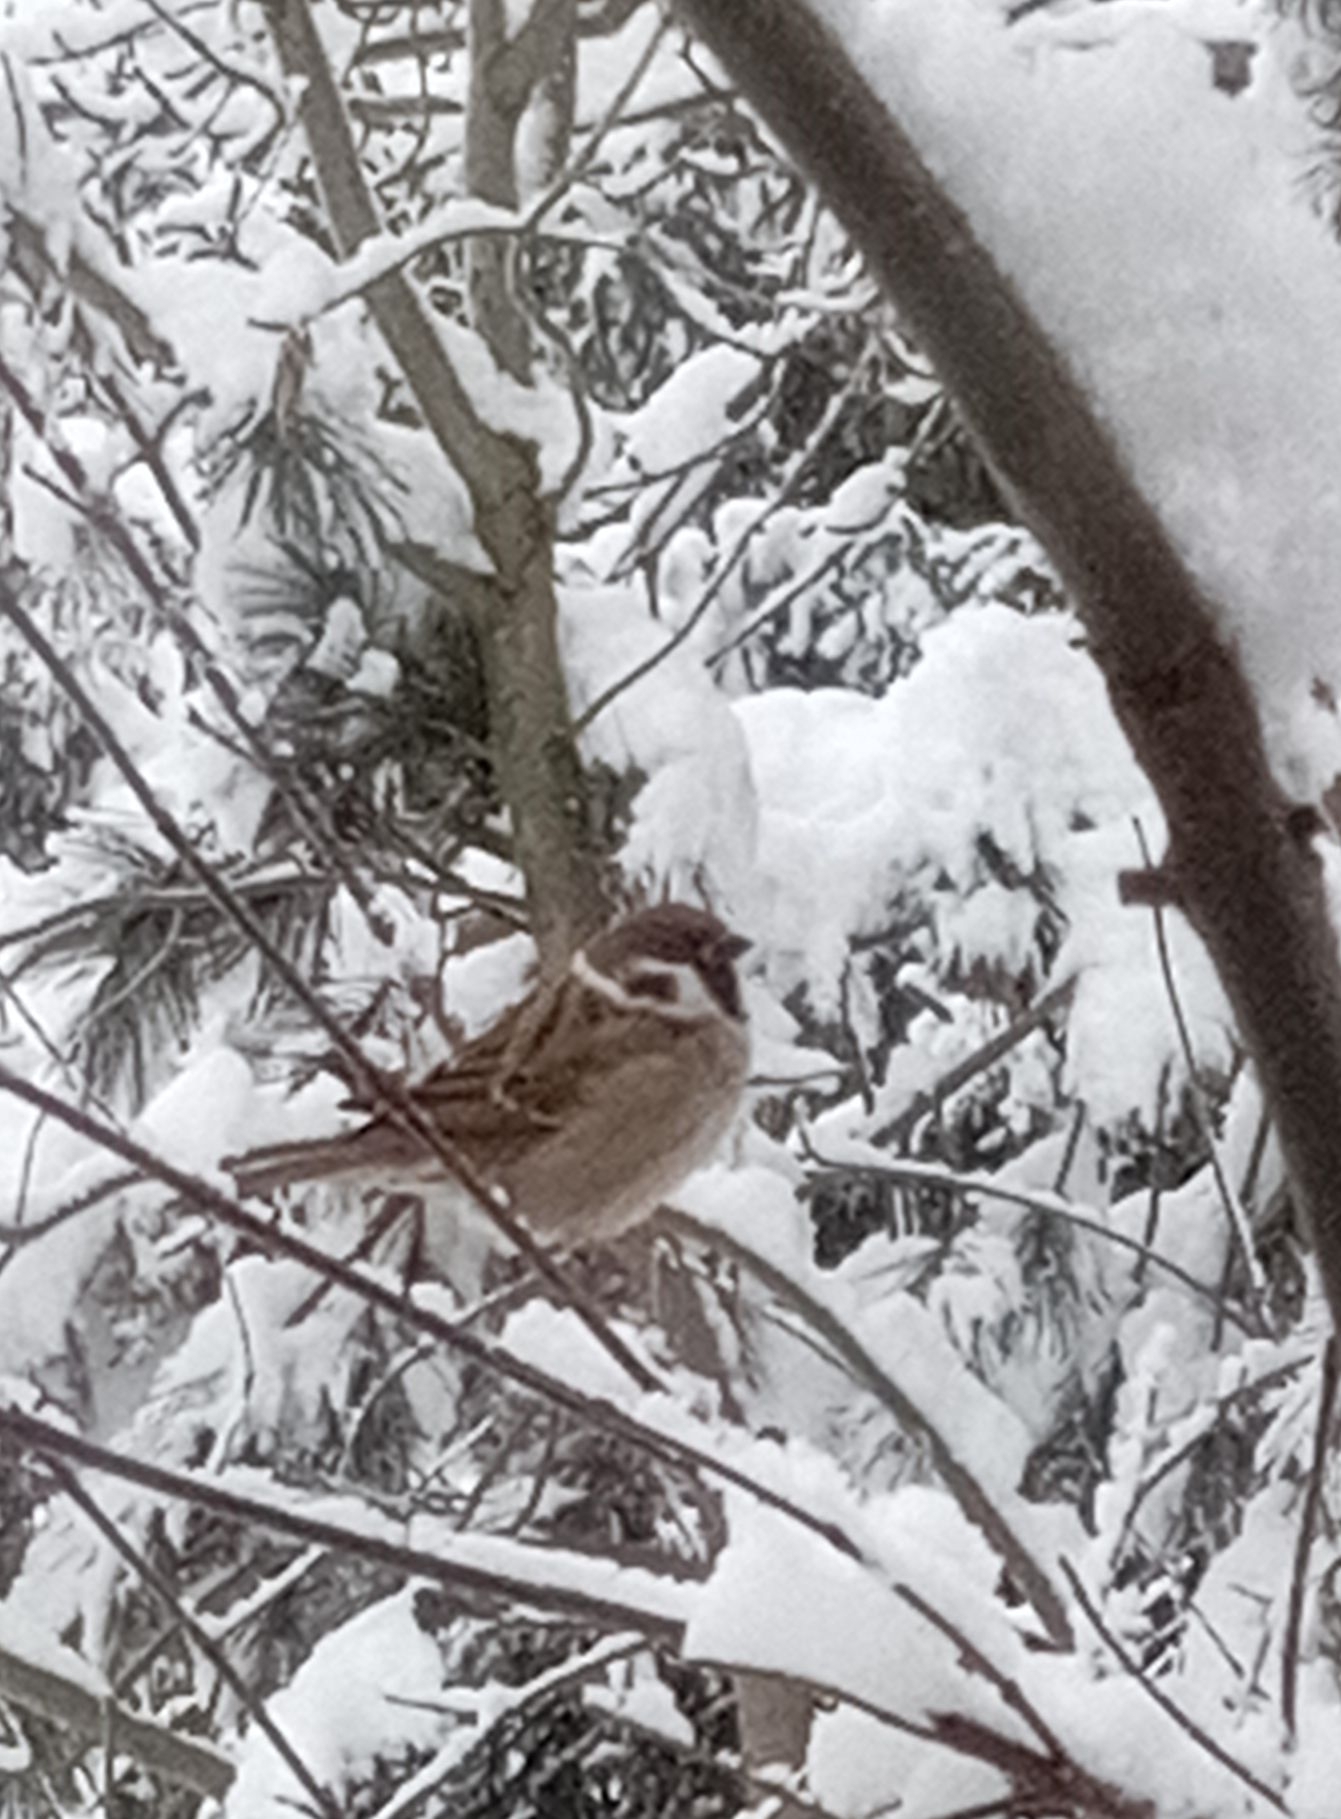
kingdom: Animalia
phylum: Chordata
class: Aves
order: Passeriformes
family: Passeridae
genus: Passer
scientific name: Passer montanus
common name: Eurasian tree sparrow
